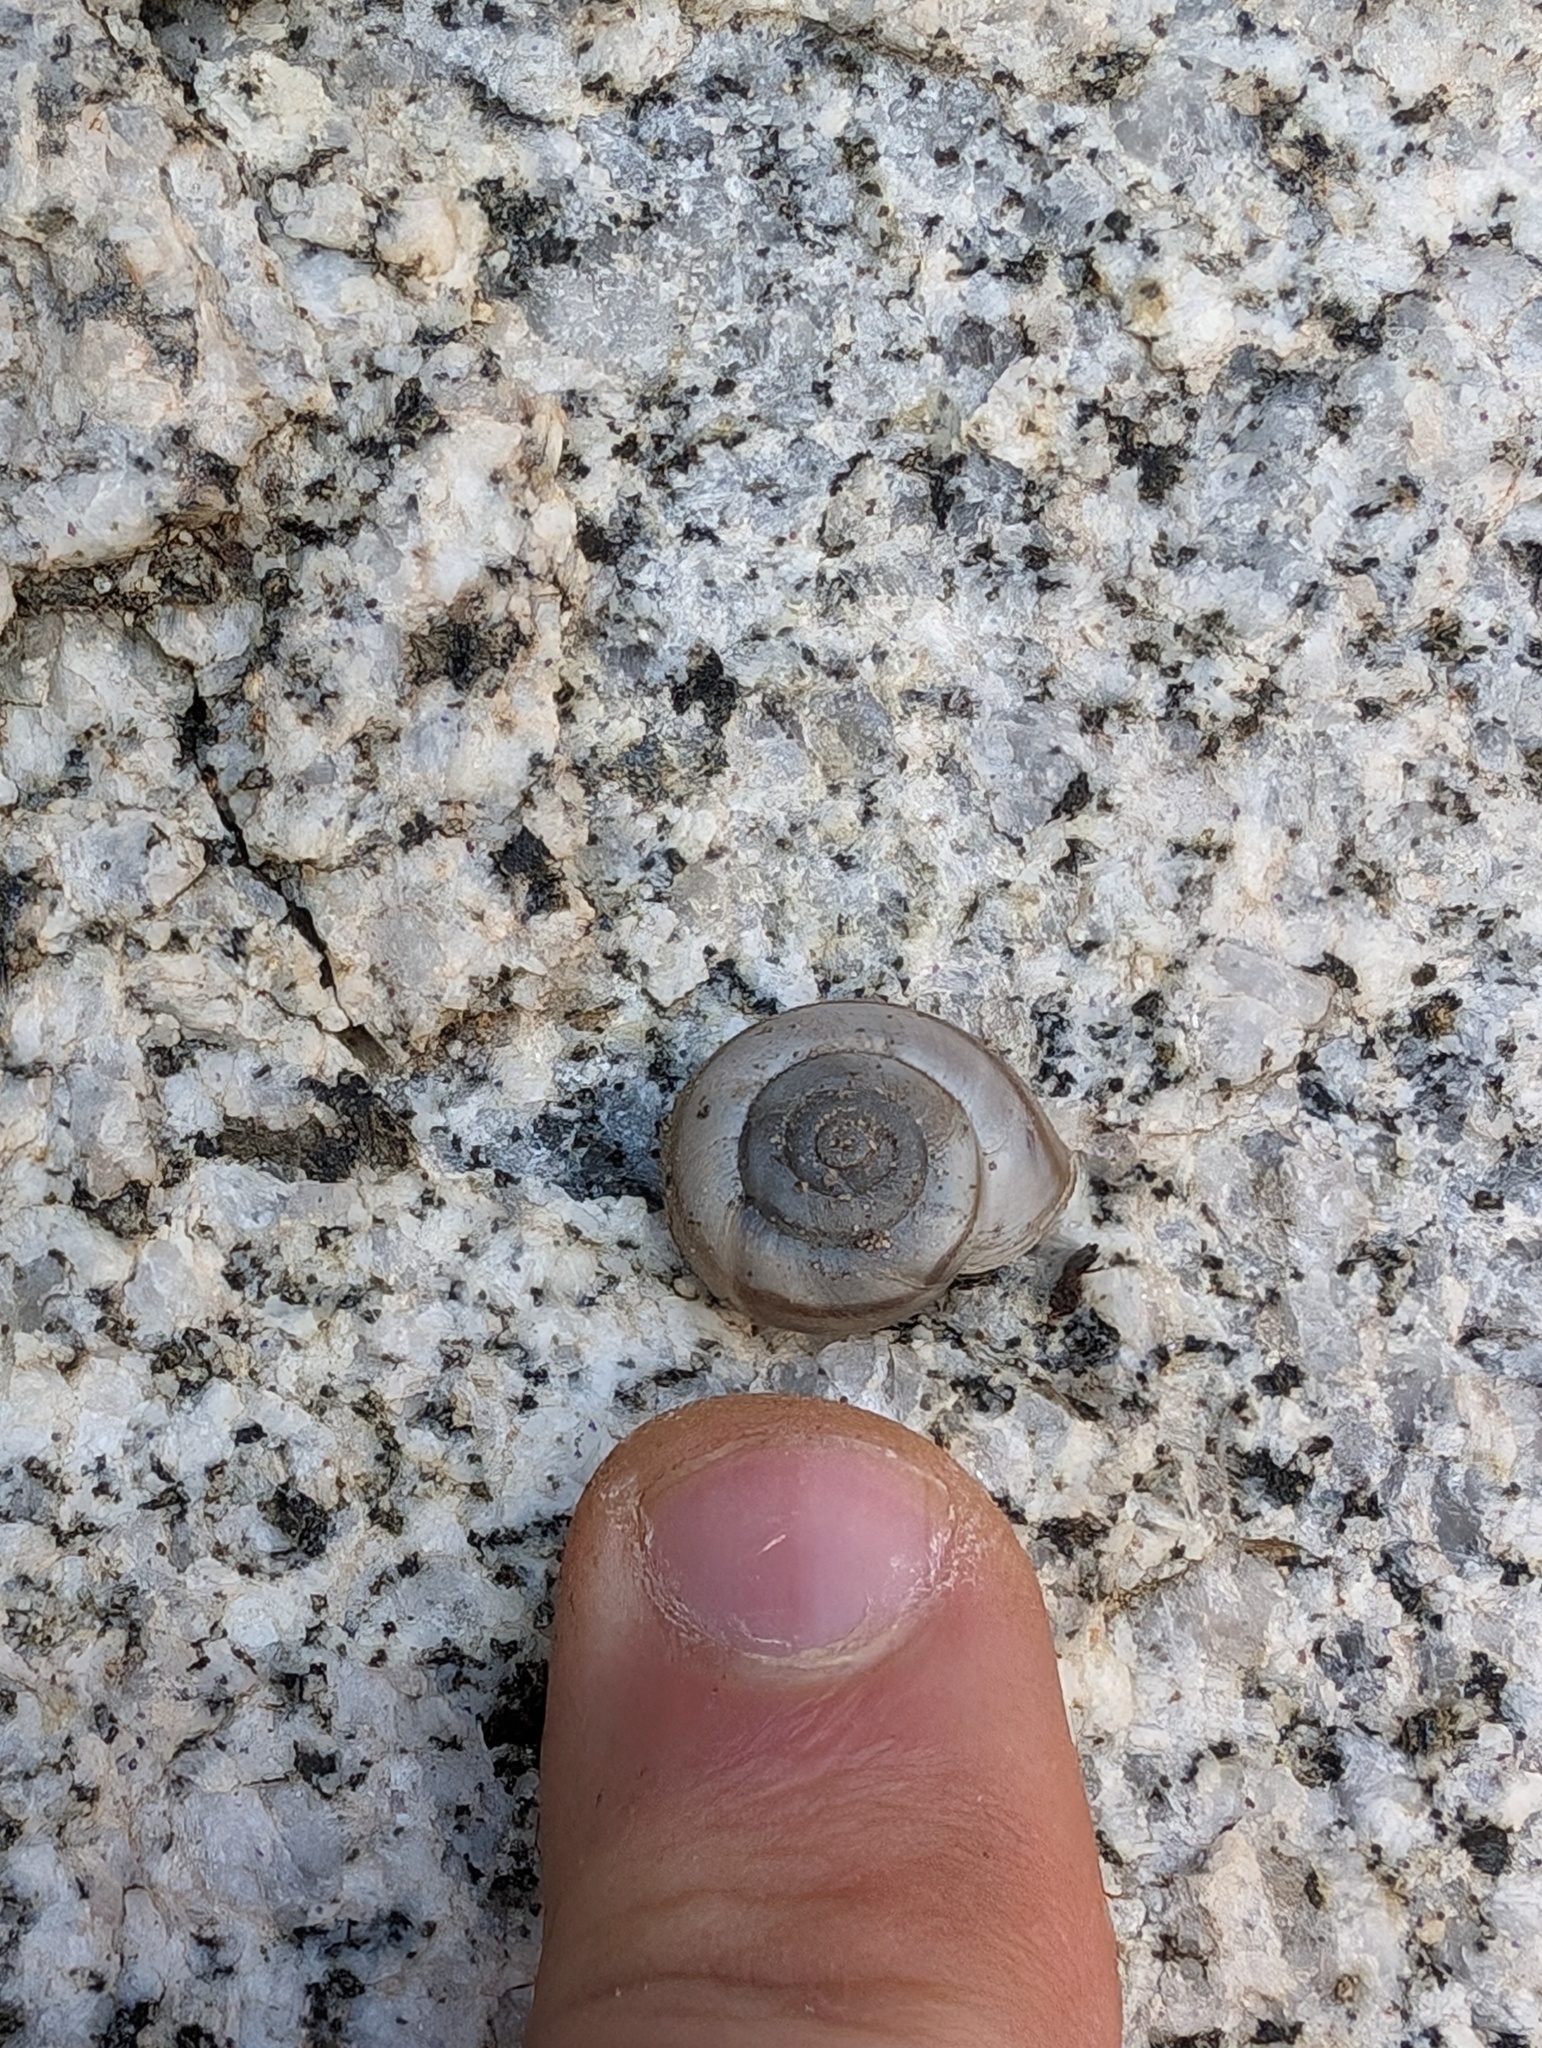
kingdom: Animalia
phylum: Mollusca
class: Gastropoda
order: Stylommatophora
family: Xanthonychidae
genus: Sonorelix
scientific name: Sonorelix harperi
